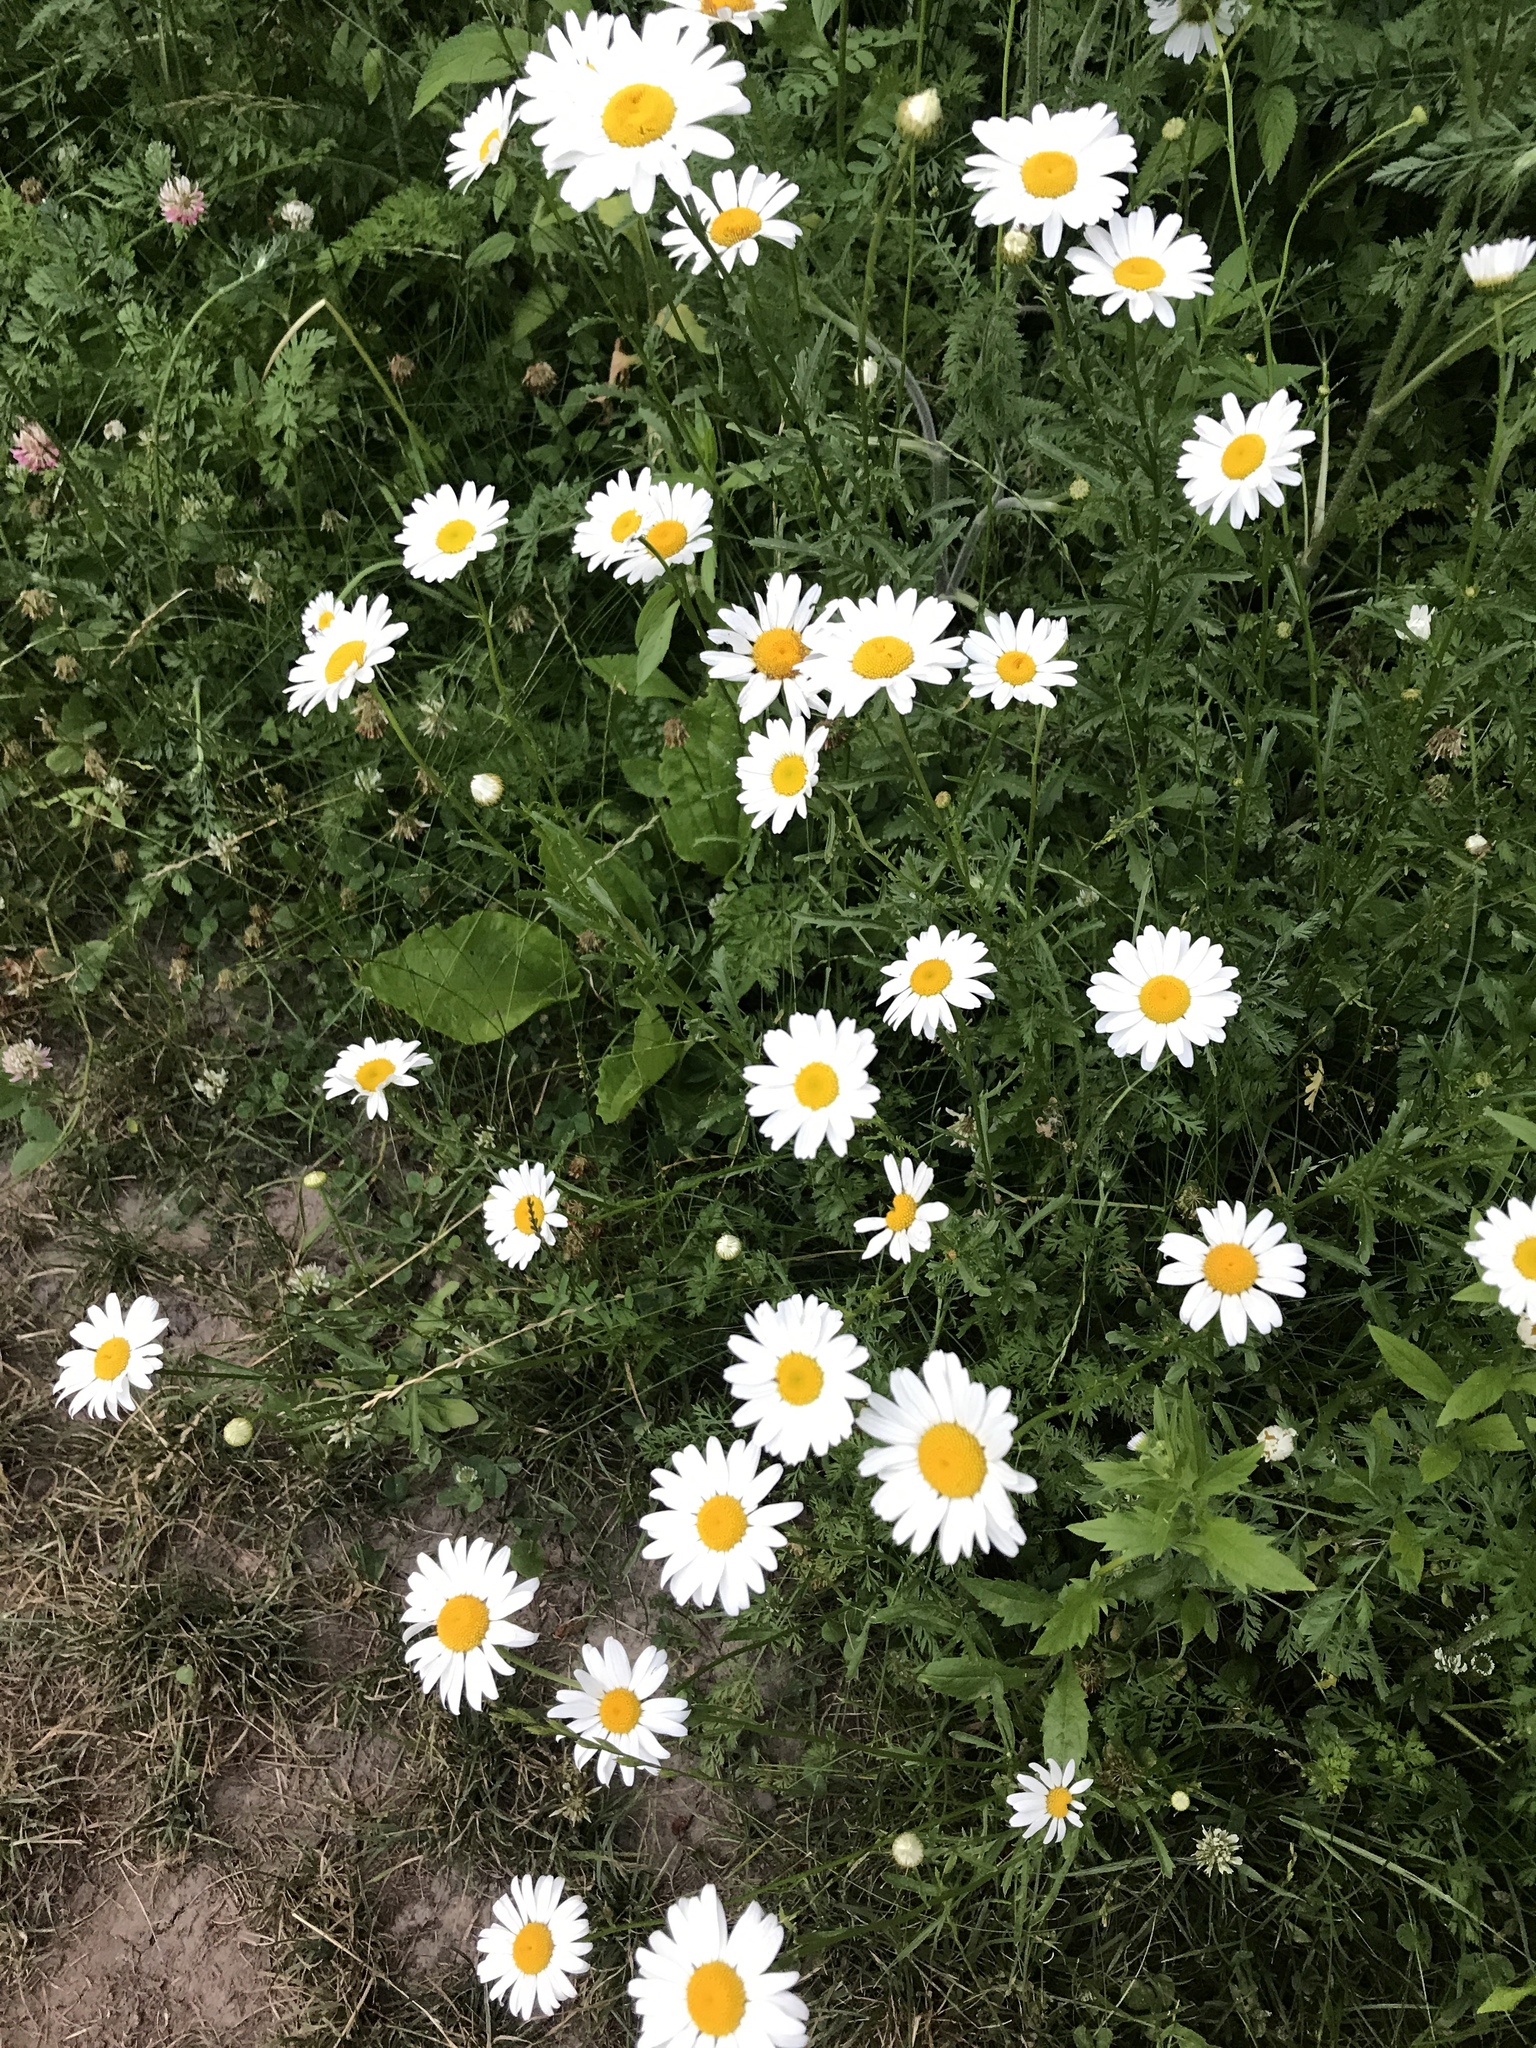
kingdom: Plantae
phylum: Tracheophyta
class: Magnoliopsida
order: Asterales
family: Asteraceae
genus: Leucanthemum
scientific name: Leucanthemum vulgare
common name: Oxeye daisy
